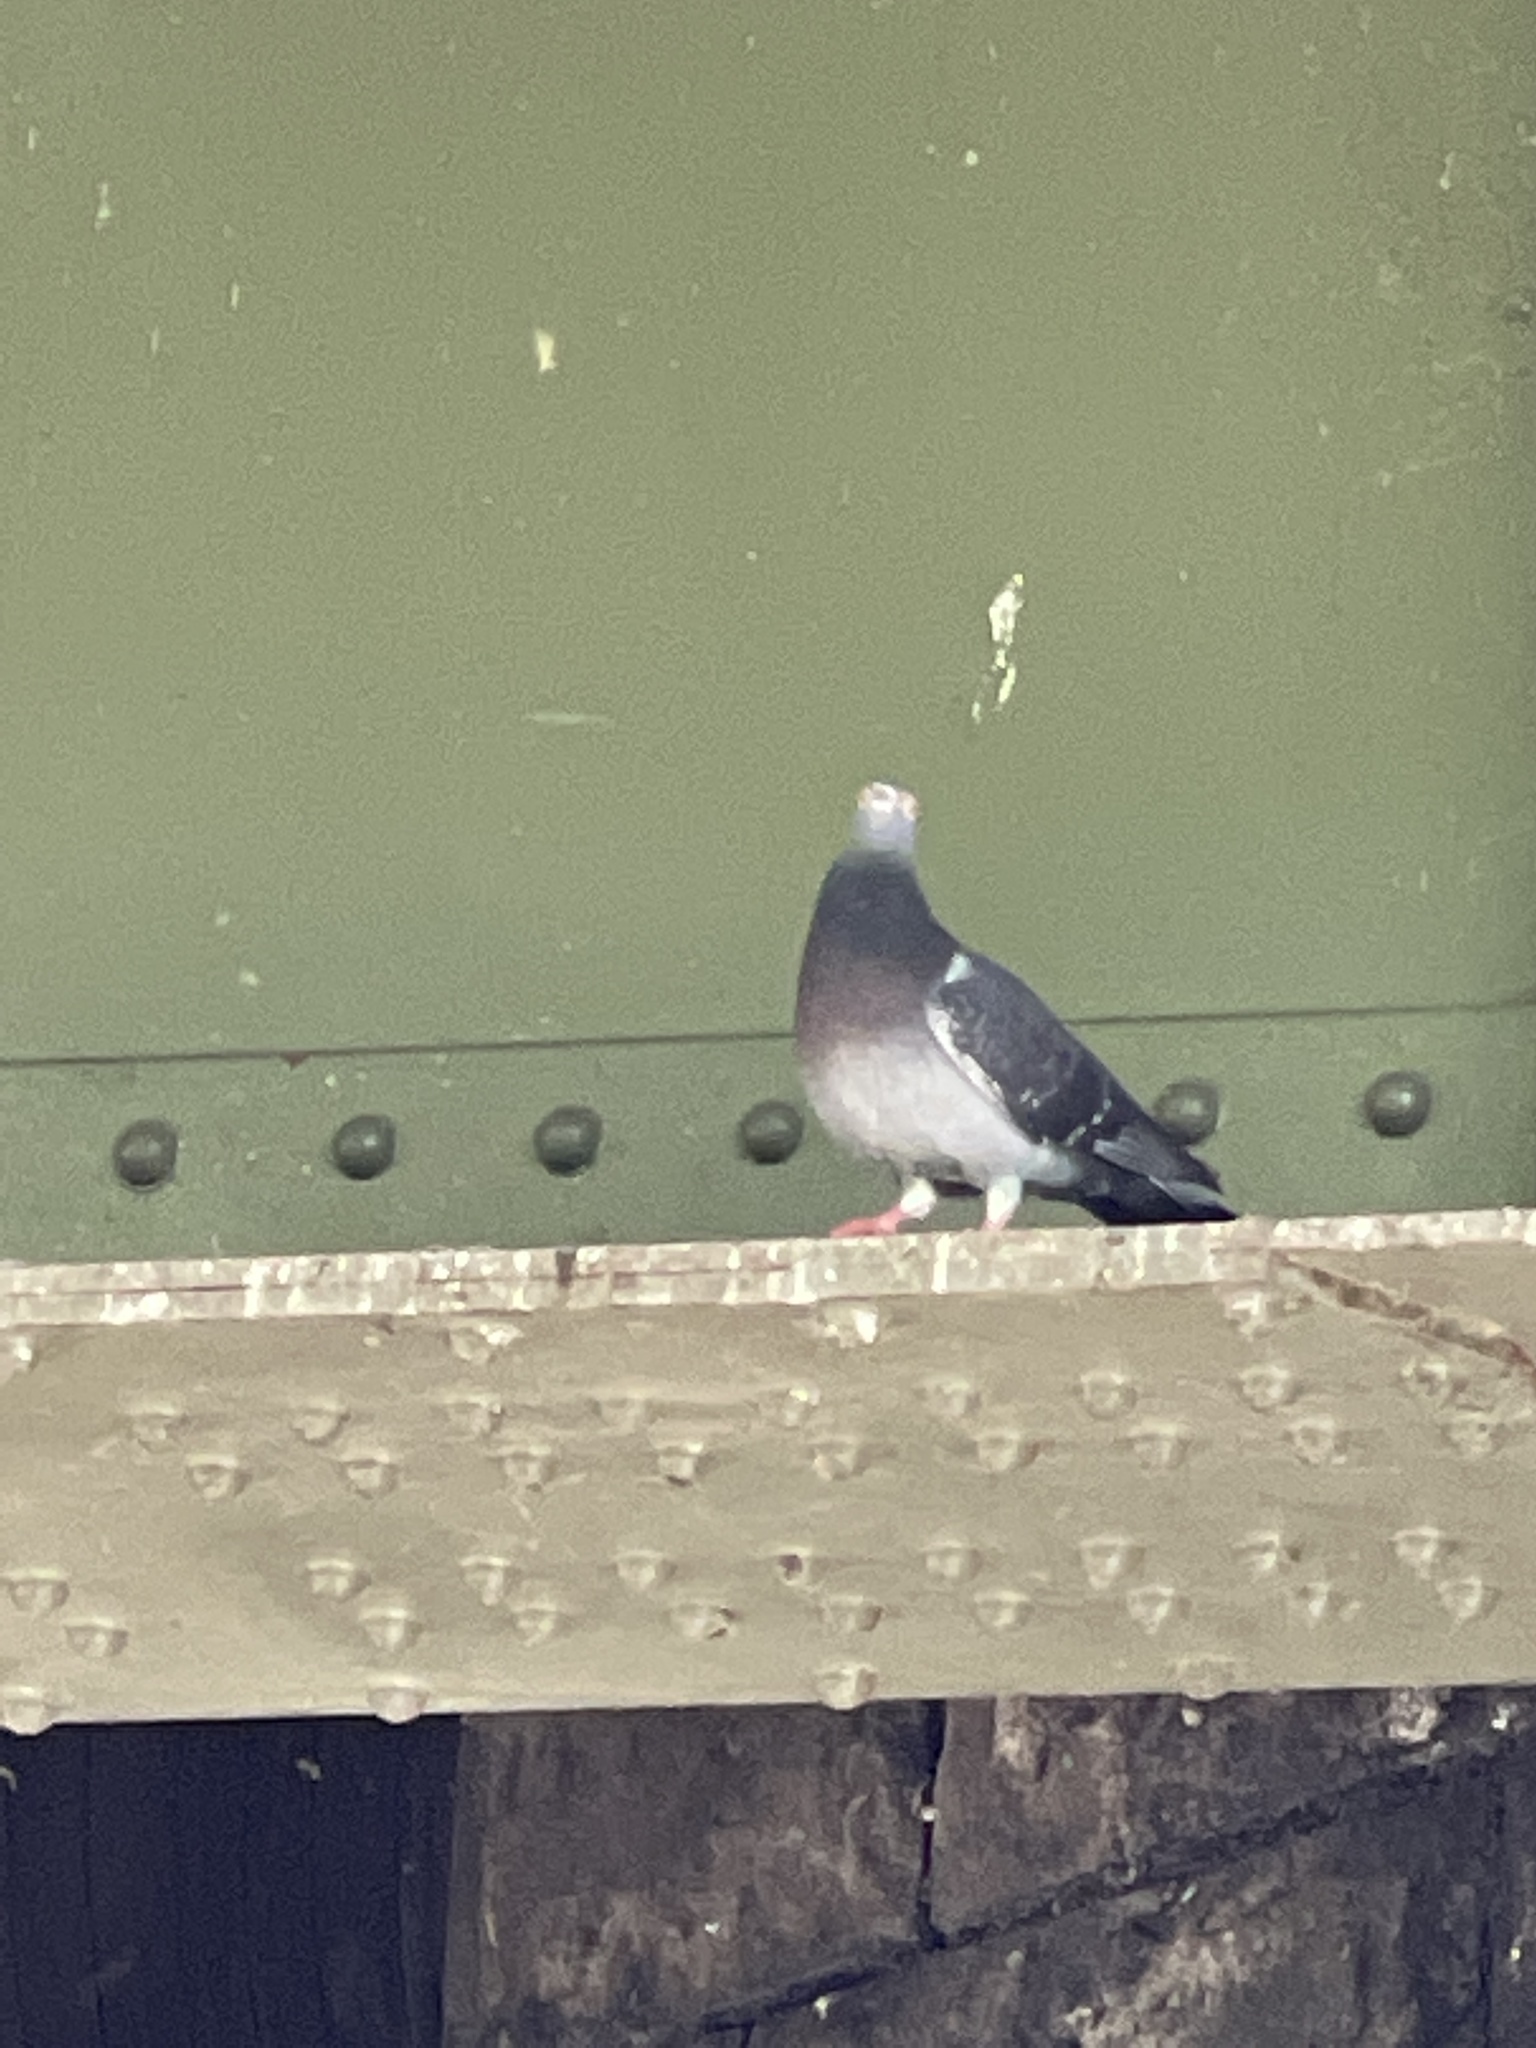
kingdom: Animalia
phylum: Chordata
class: Aves
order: Columbiformes
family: Columbidae
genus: Columba
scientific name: Columba livia
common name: Rock pigeon
